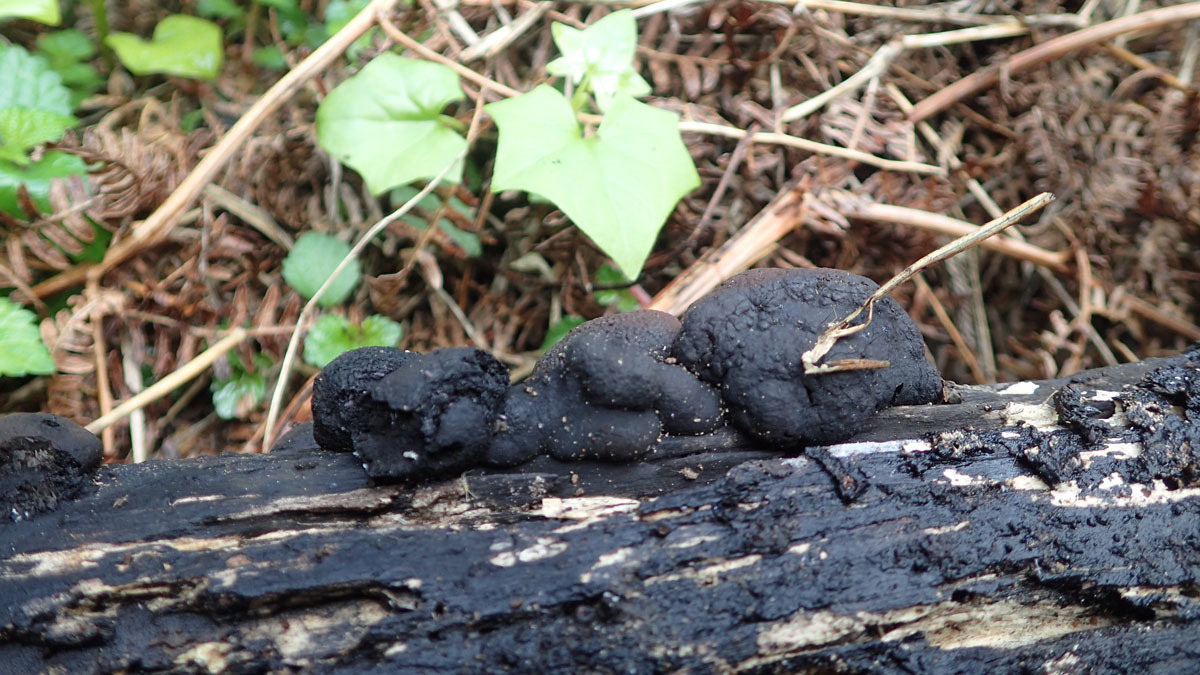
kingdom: Fungi
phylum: Ascomycota
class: Sordariomycetes
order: Xylariales
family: Hypoxylaceae
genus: Daldinia
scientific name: Daldinia concentrica
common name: Cramp balls
